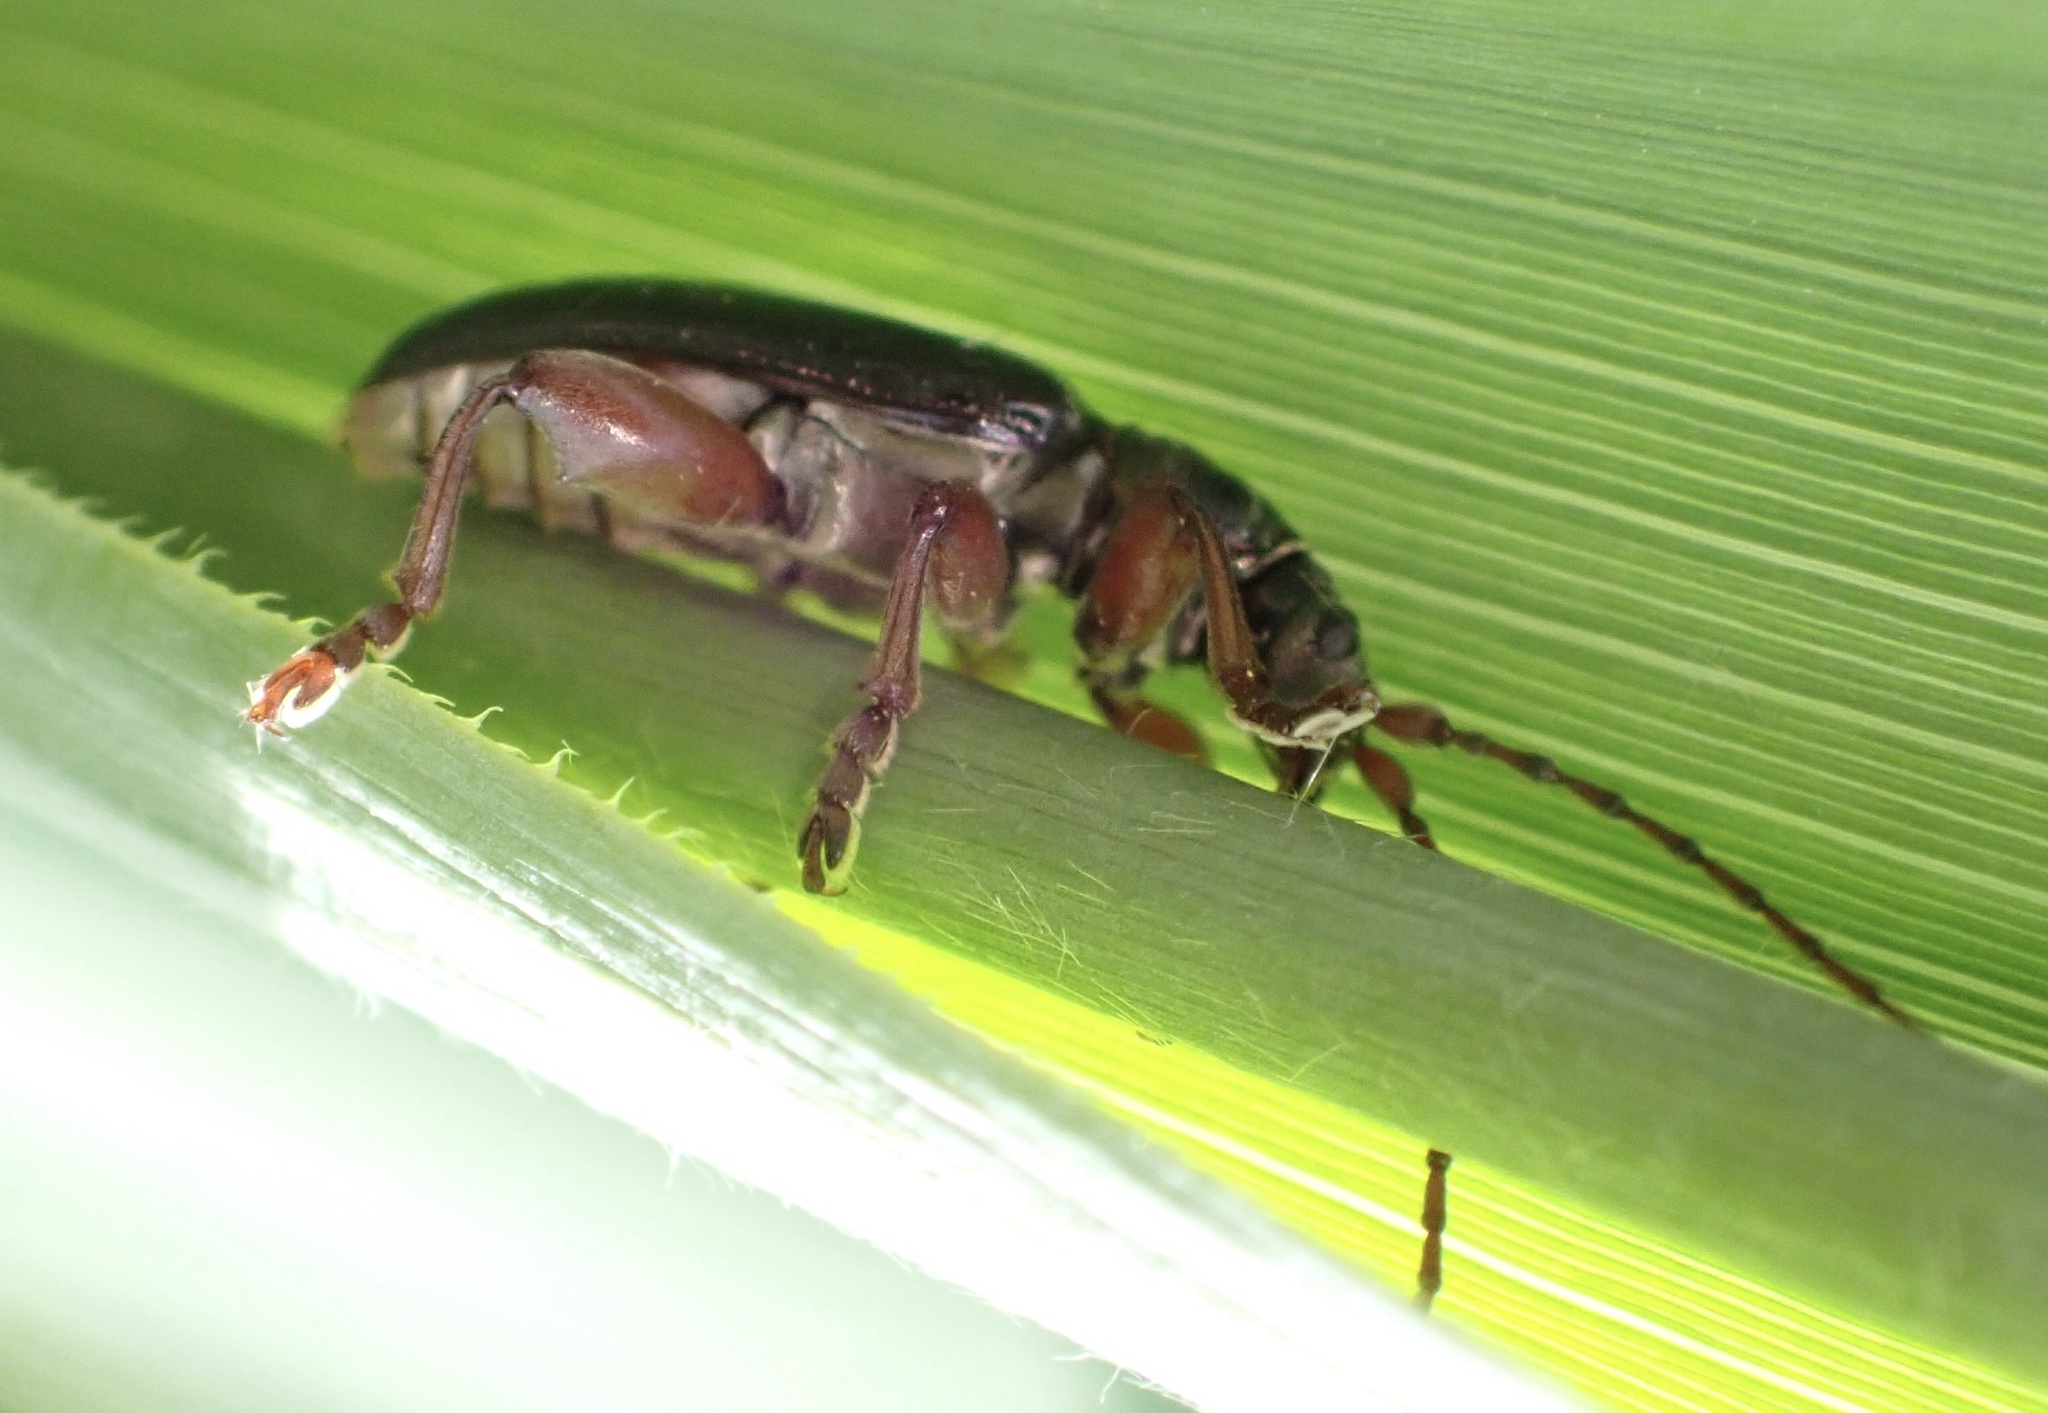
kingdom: Animalia
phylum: Arthropoda
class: Insecta
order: Coleoptera
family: Chrysomelidae
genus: Plateumaris
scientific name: Plateumaris braccata
